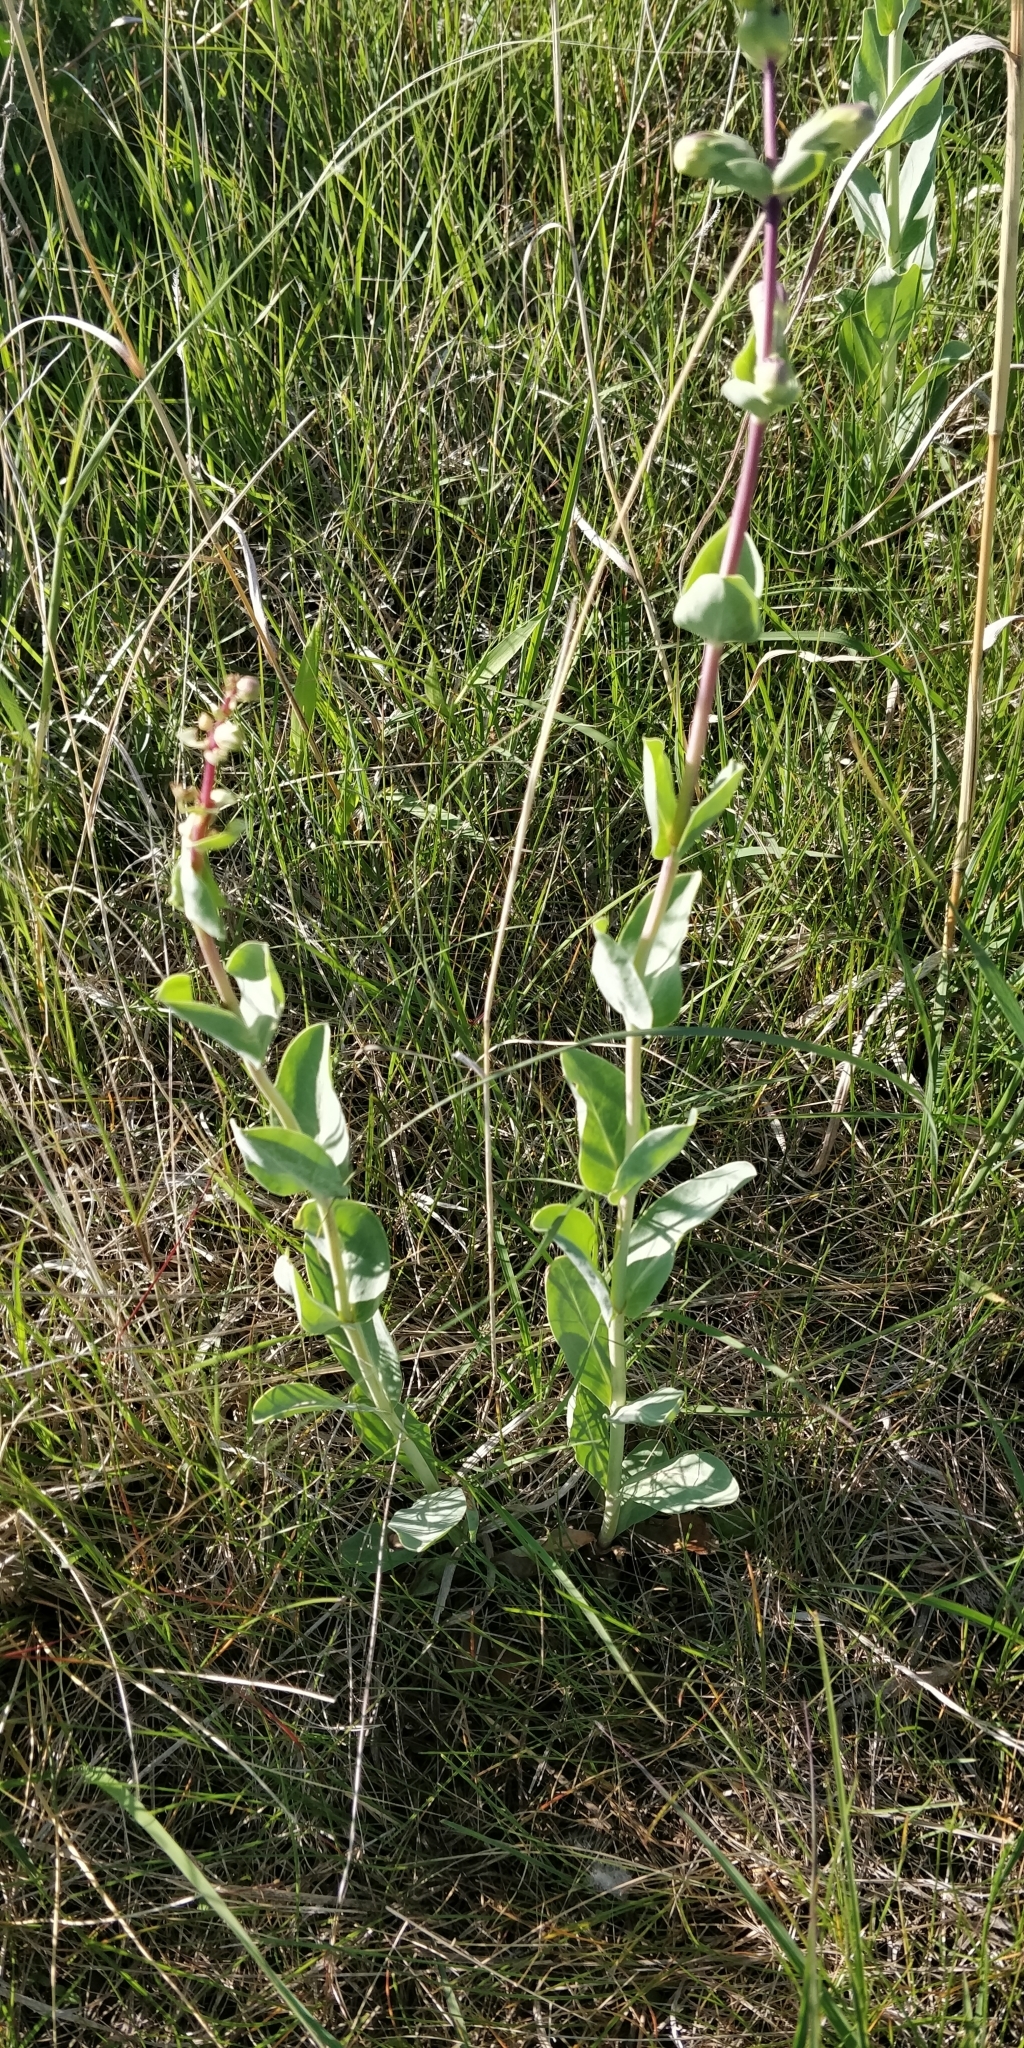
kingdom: Plantae
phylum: Tracheophyta
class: Magnoliopsida
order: Lamiales
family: Plantaginaceae
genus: Penstemon
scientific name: Penstemon
